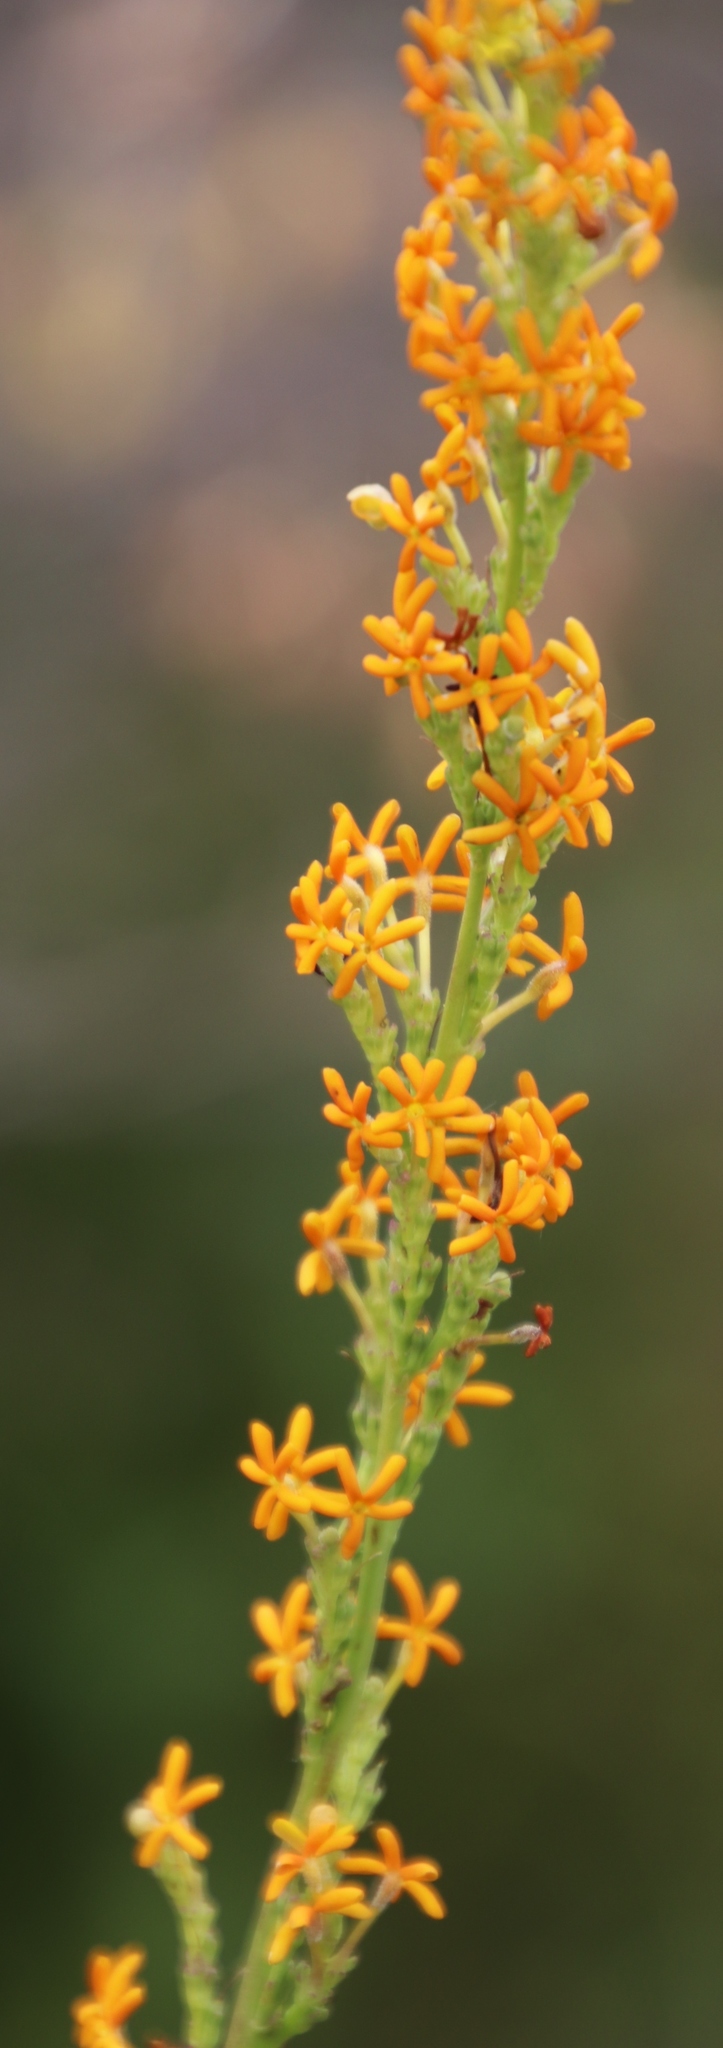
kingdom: Plantae
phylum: Tracheophyta
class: Magnoliopsida
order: Lamiales
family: Scrophulariaceae
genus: Manulea
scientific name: Manulea rubra
